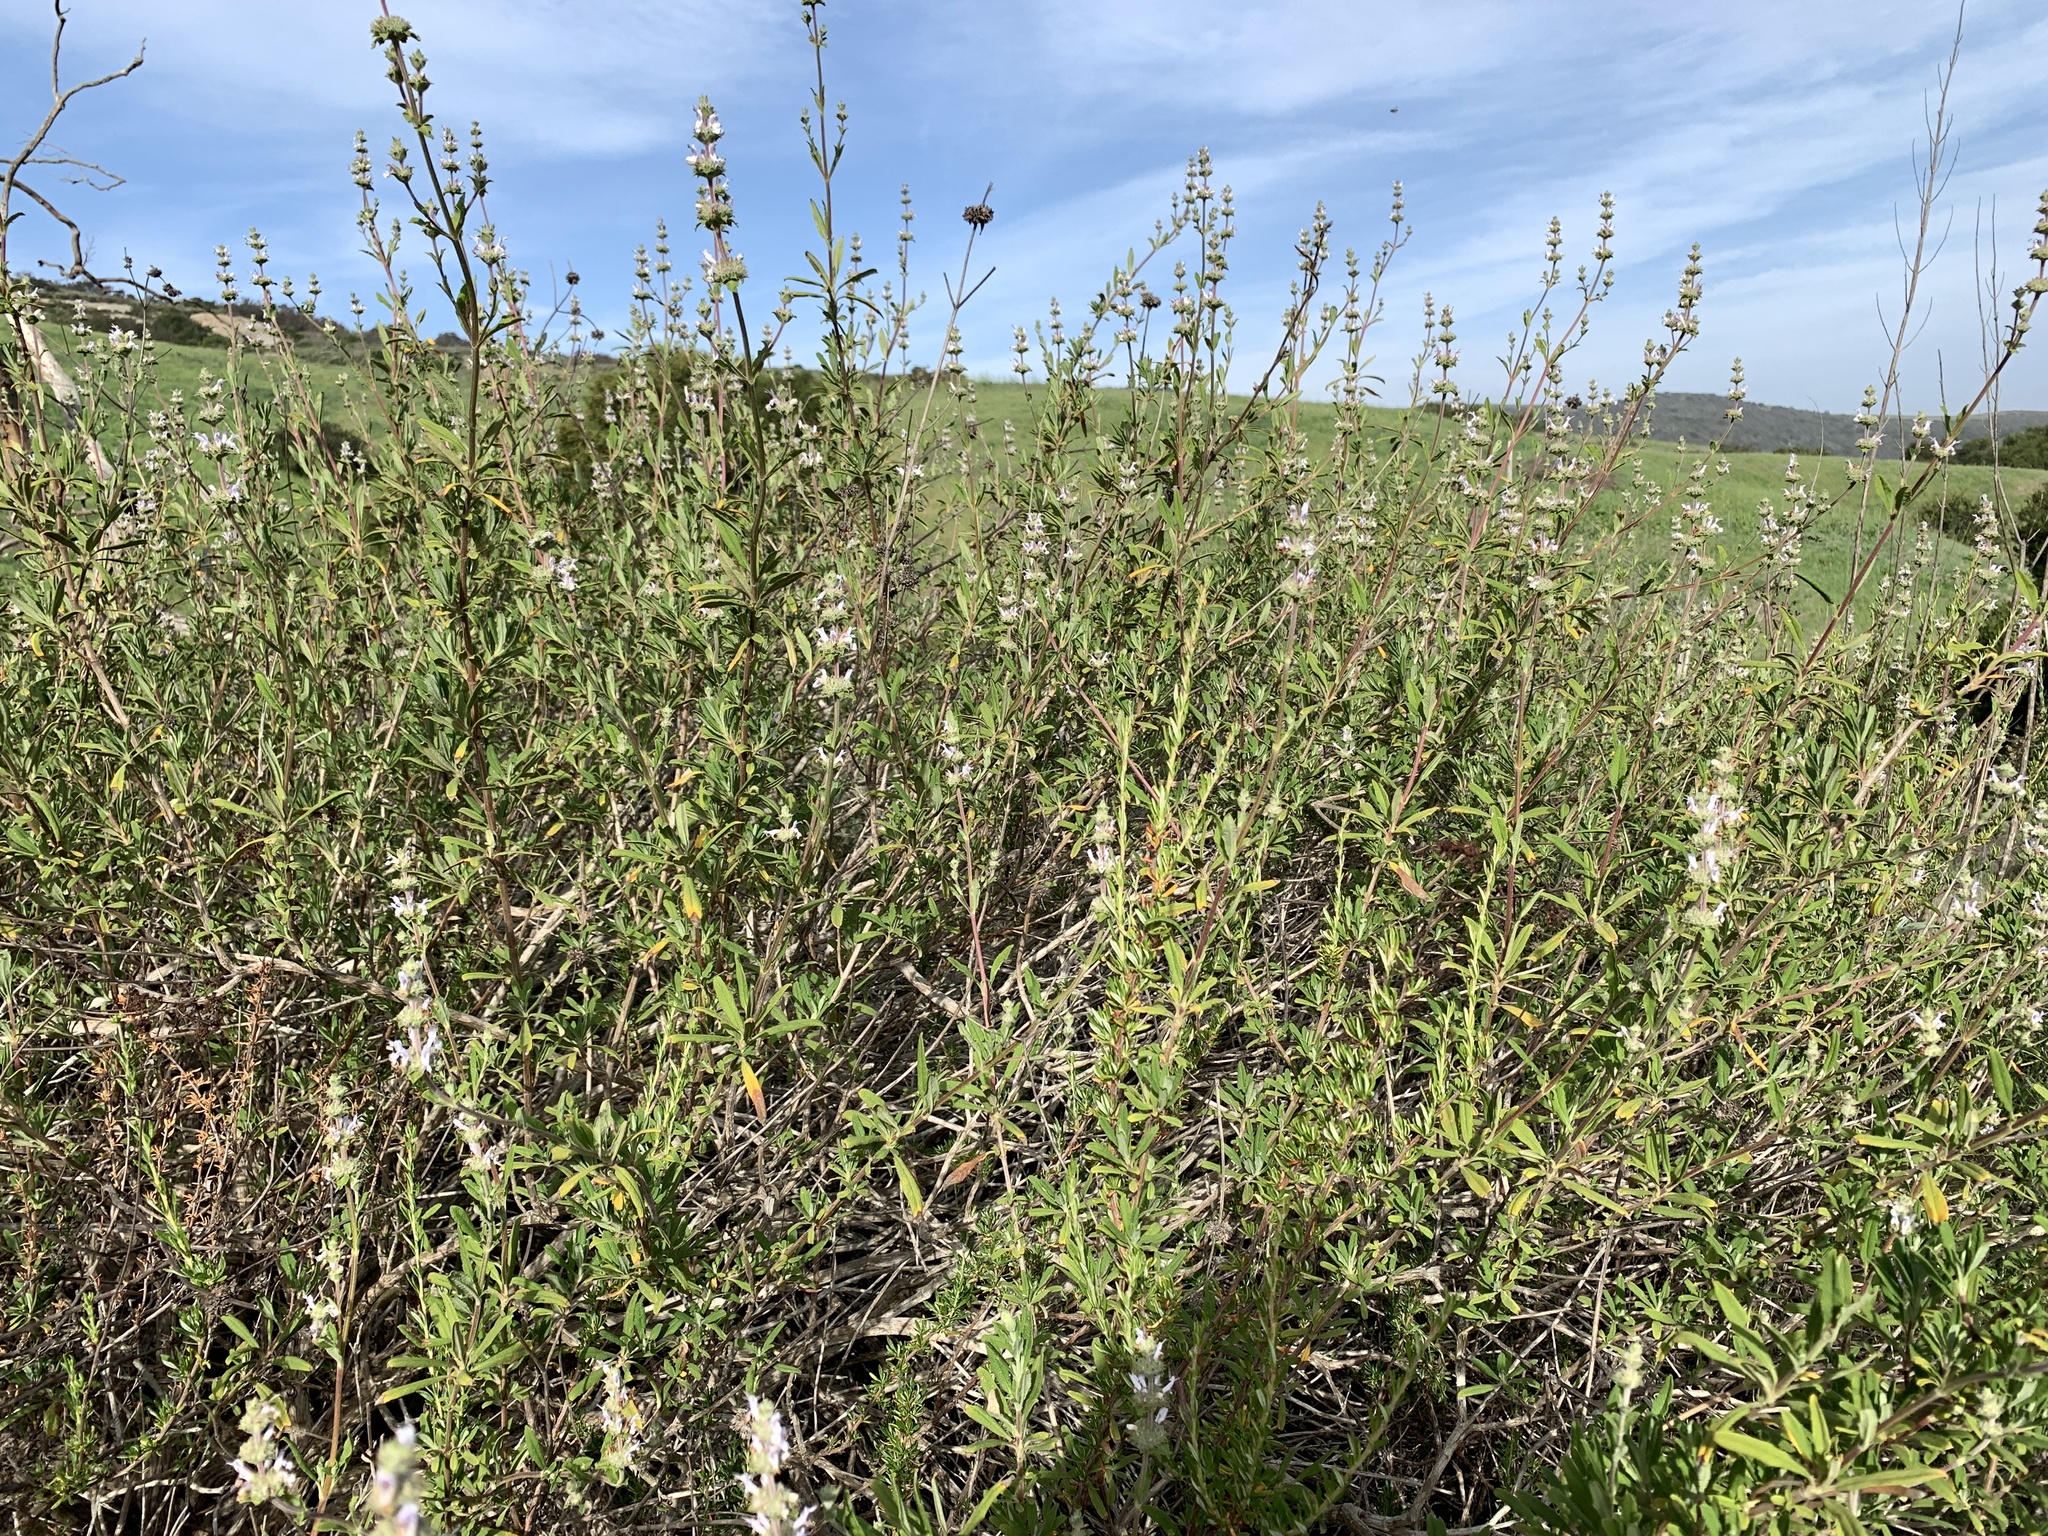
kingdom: Plantae
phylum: Tracheophyta
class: Magnoliopsida
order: Lamiales
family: Lamiaceae
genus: Salvia
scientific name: Salvia mellifera
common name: Black sage
